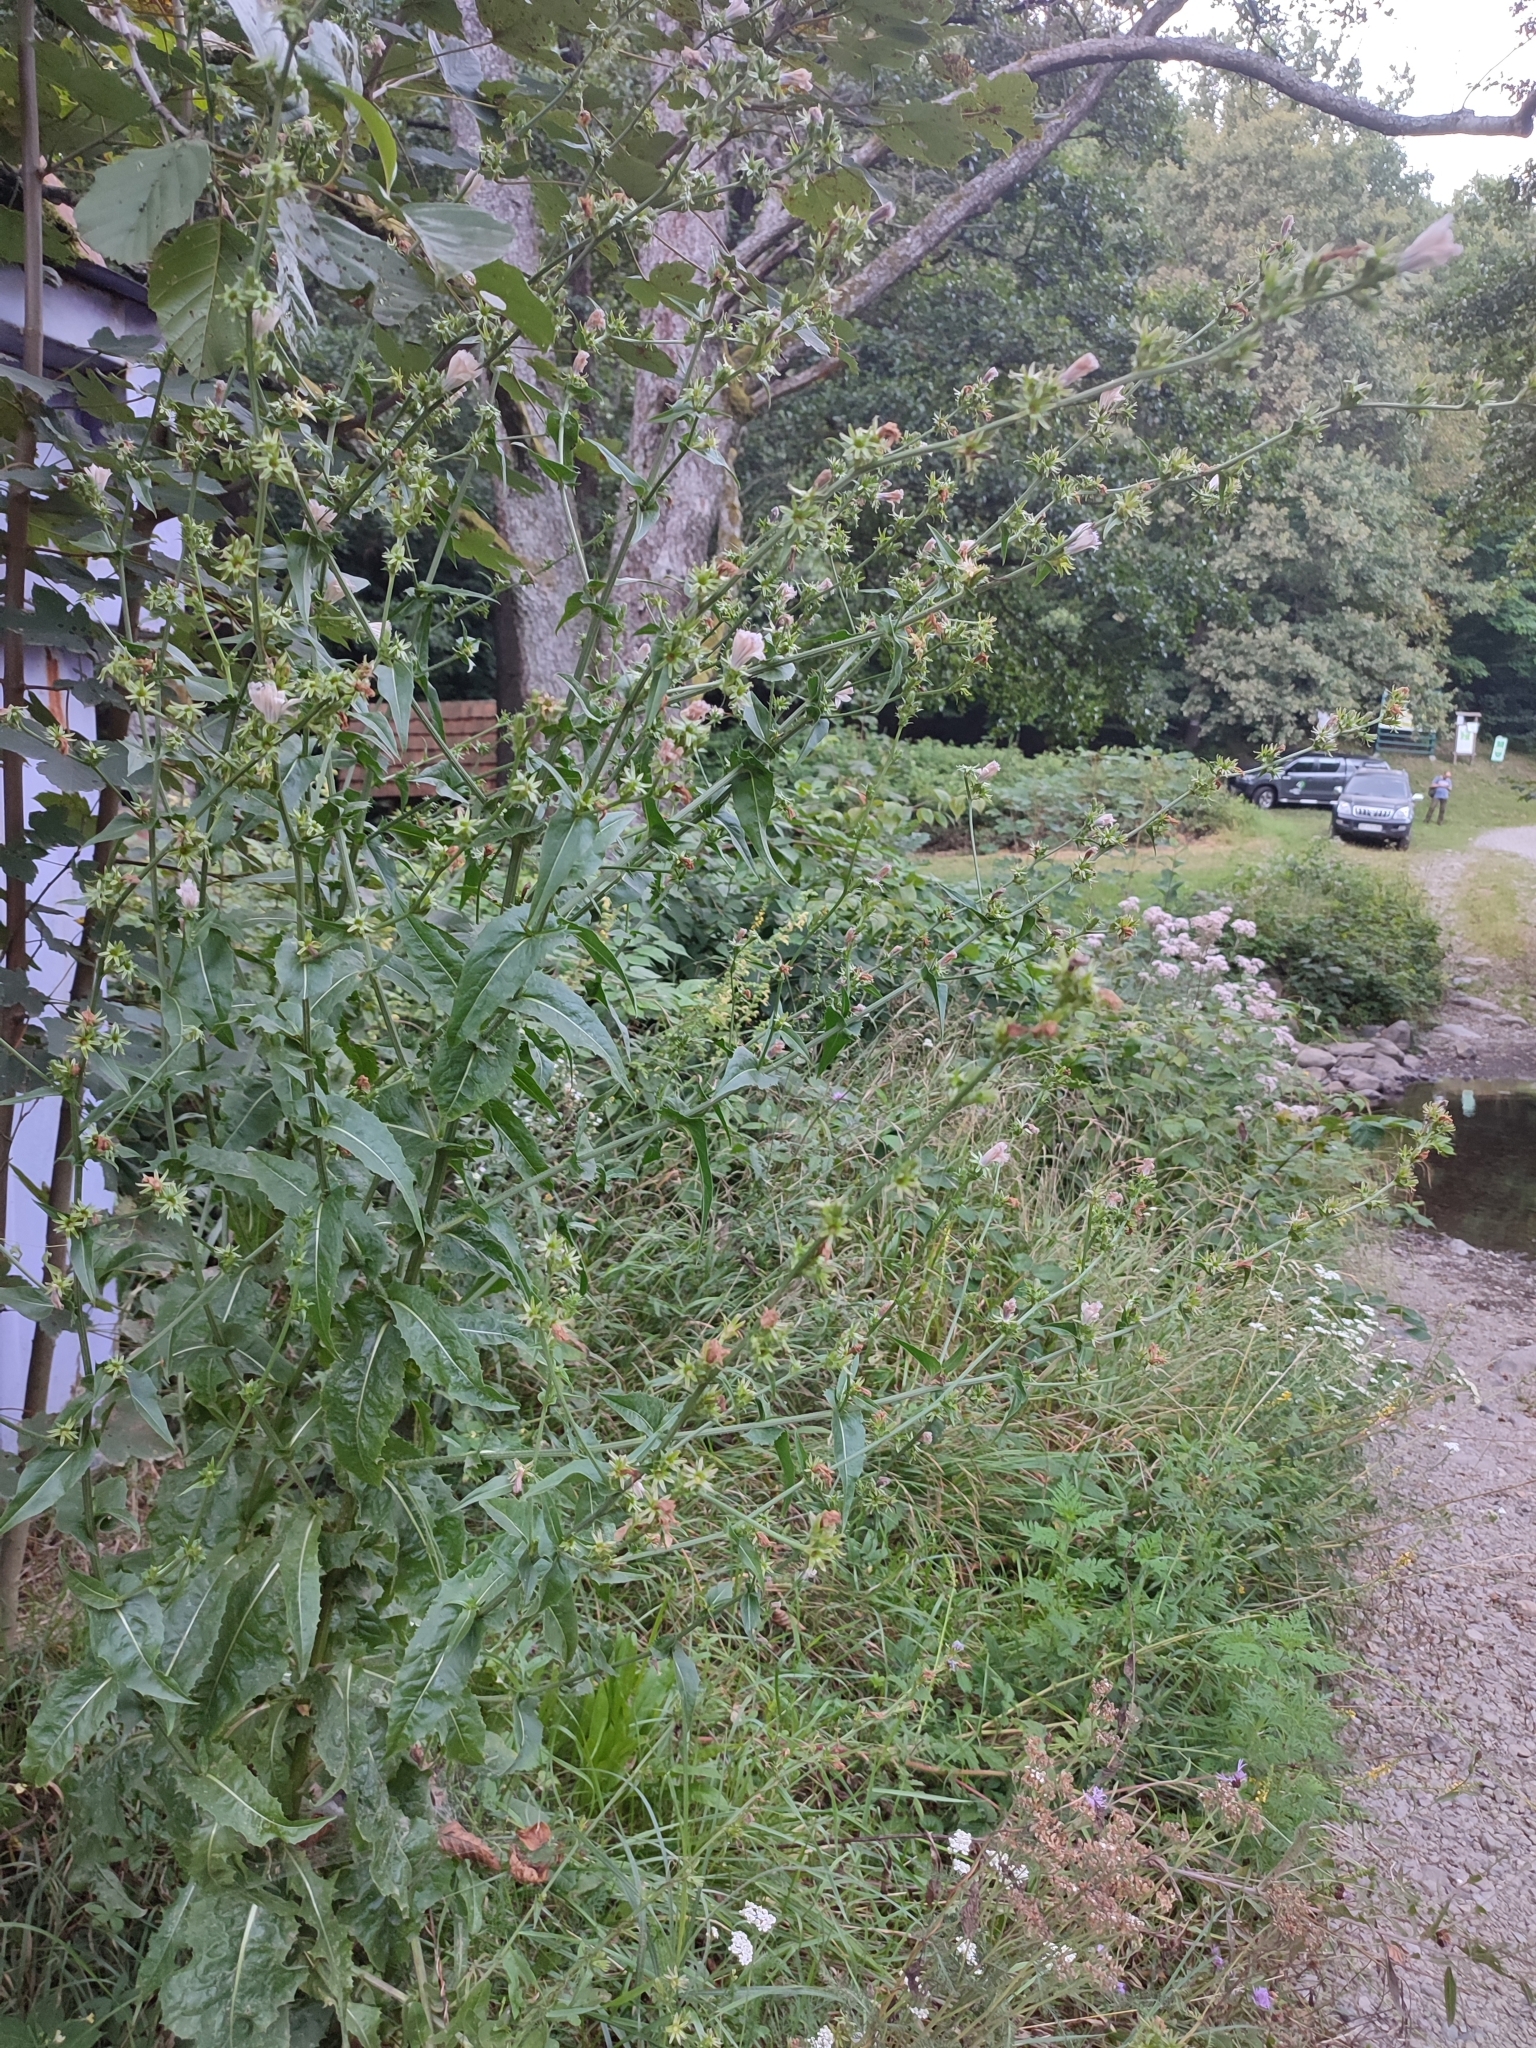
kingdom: Plantae
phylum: Tracheophyta
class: Magnoliopsida
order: Asterales
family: Asteraceae
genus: Cichorium
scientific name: Cichorium intybus
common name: Chicory
